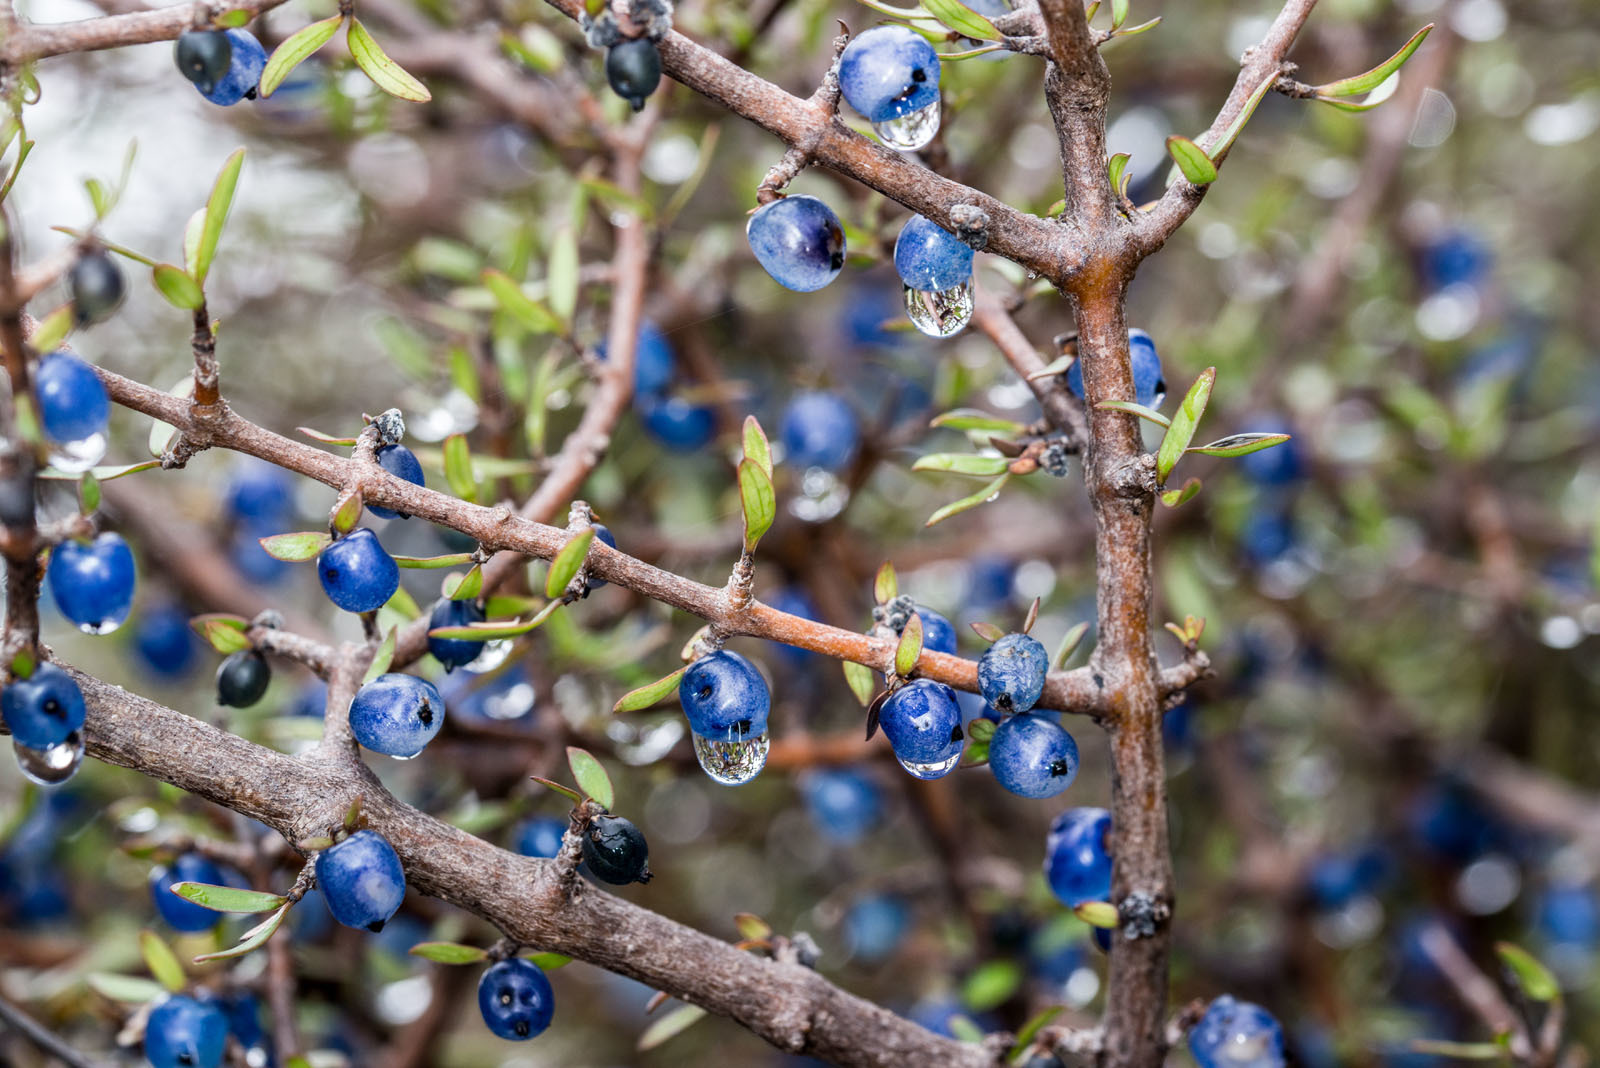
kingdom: Plantae
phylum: Tracheophyta
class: Magnoliopsida
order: Gentianales
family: Rubiaceae
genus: Coprosma
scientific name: Coprosma propinqua
